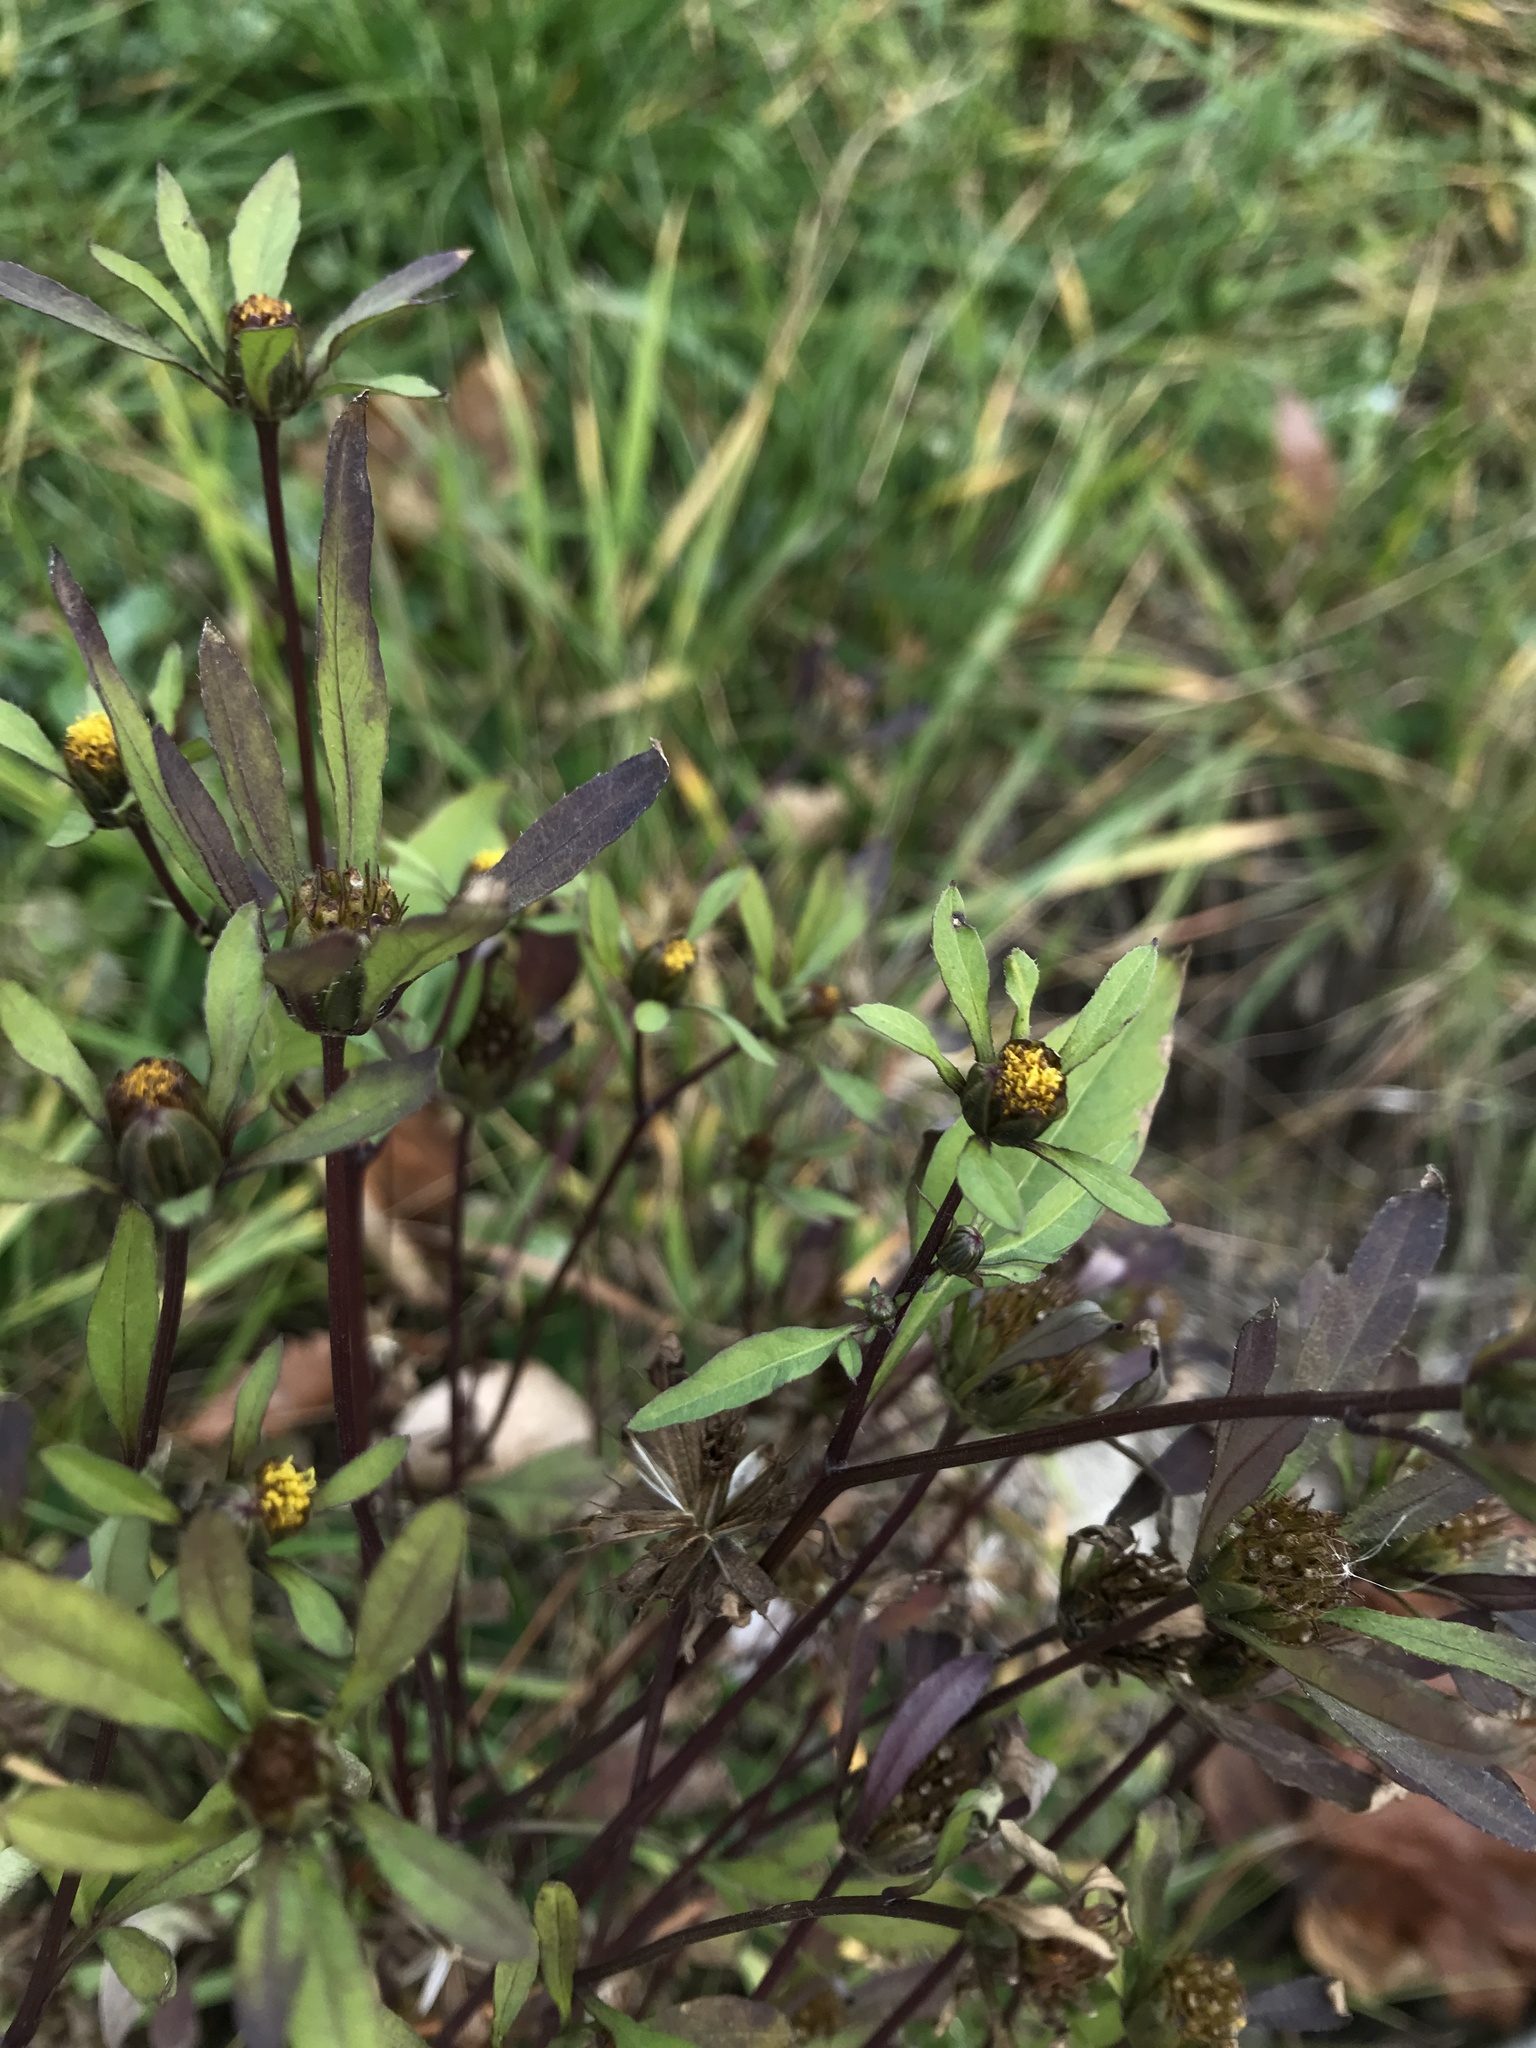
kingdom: Plantae
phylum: Tracheophyta
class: Magnoliopsida
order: Asterales
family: Asteraceae
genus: Bidens
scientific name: Bidens frondosa
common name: Beggarticks
